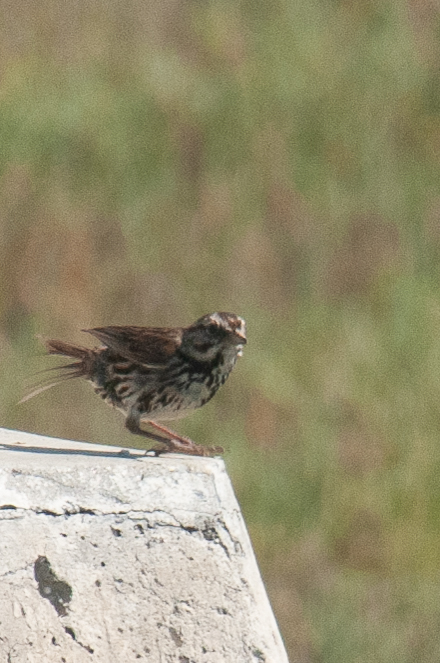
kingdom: Animalia
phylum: Chordata
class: Aves
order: Passeriformes
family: Passerellidae
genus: Melospiza
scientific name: Melospiza melodia
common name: Song sparrow
